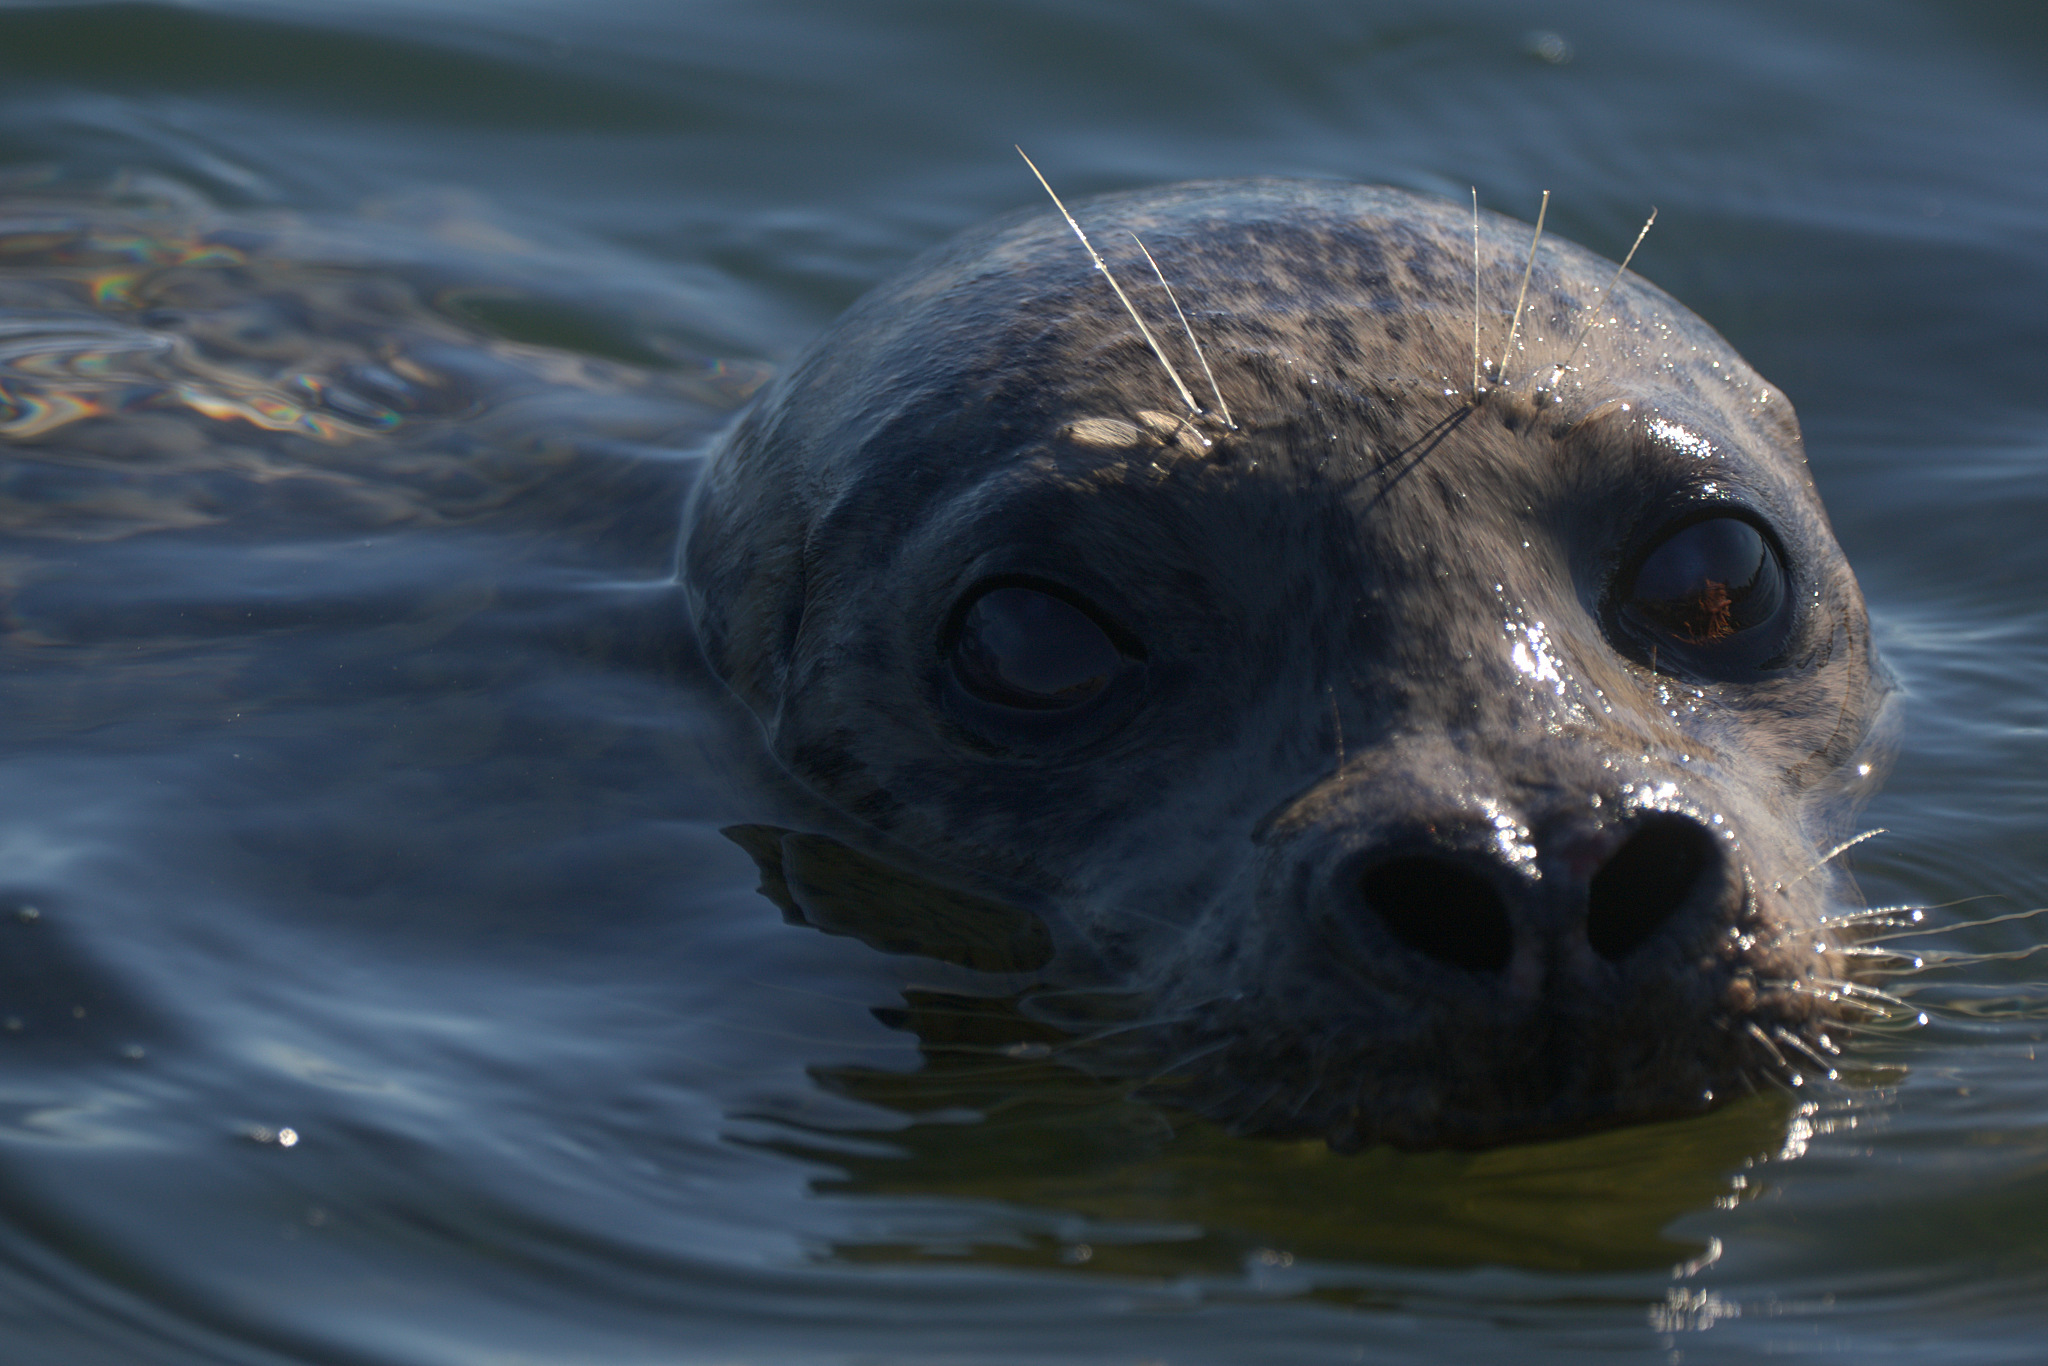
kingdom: Animalia
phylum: Chordata
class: Mammalia
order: Carnivora
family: Phocidae
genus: Phoca
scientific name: Phoca vitulina
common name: Harbor seal
